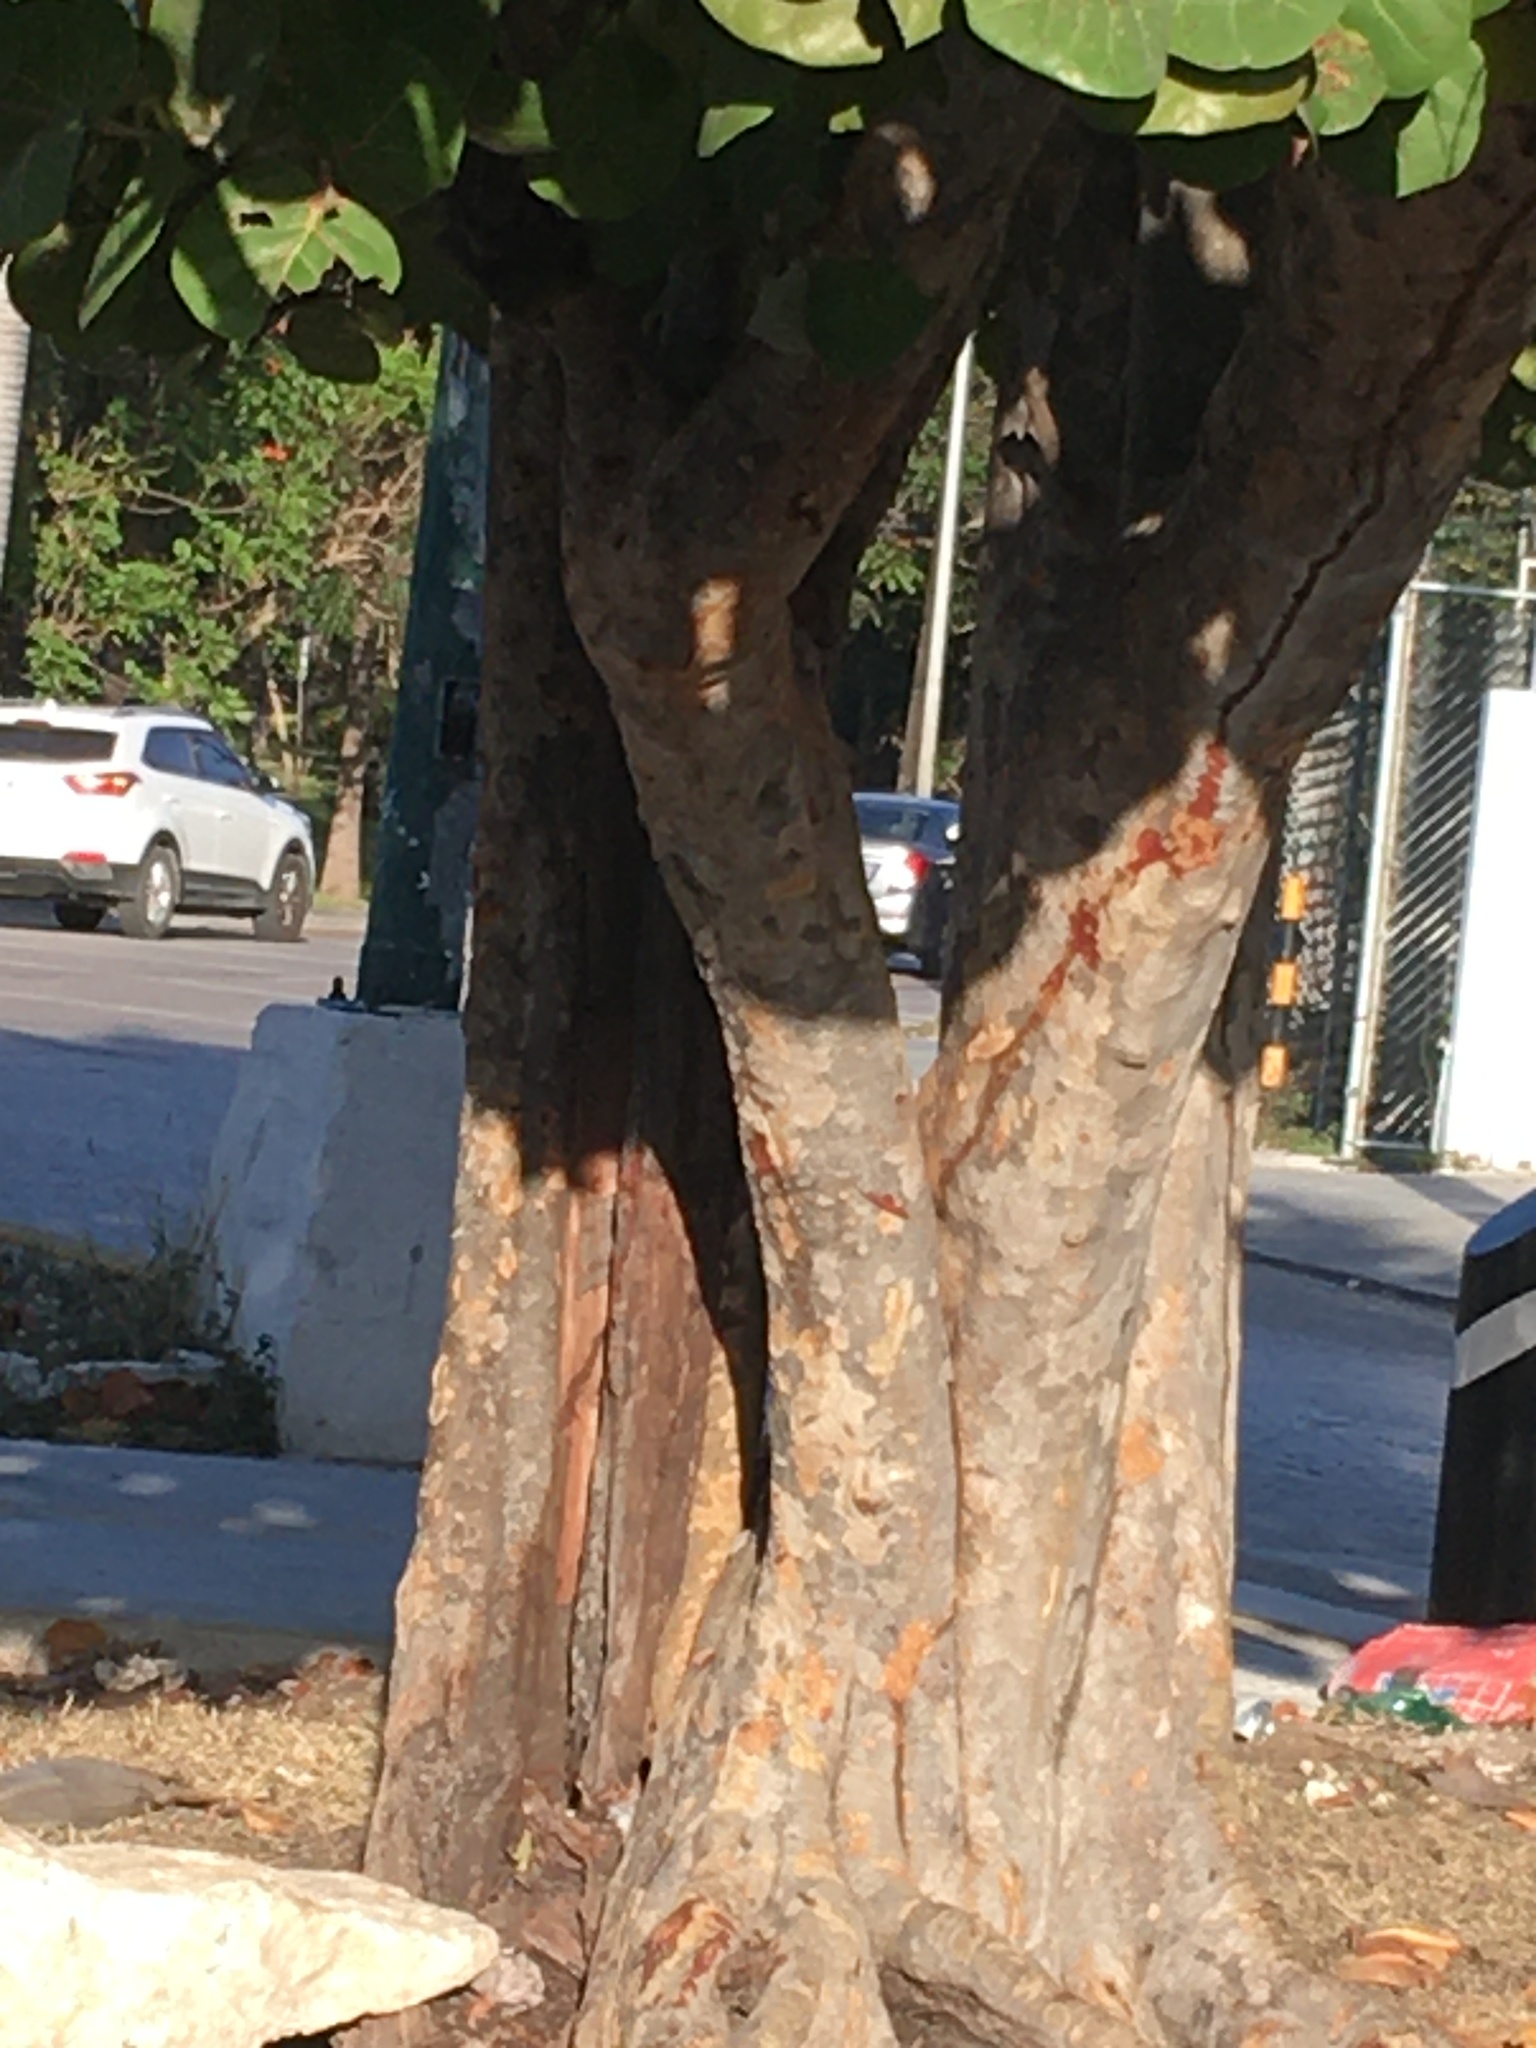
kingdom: Plantae
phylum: Tracheophyta
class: Magnoliopsida
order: Caryophyllales
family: Polygonaceae
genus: Coccoloba
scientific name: Coccoloba uvifera
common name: Seagrape
